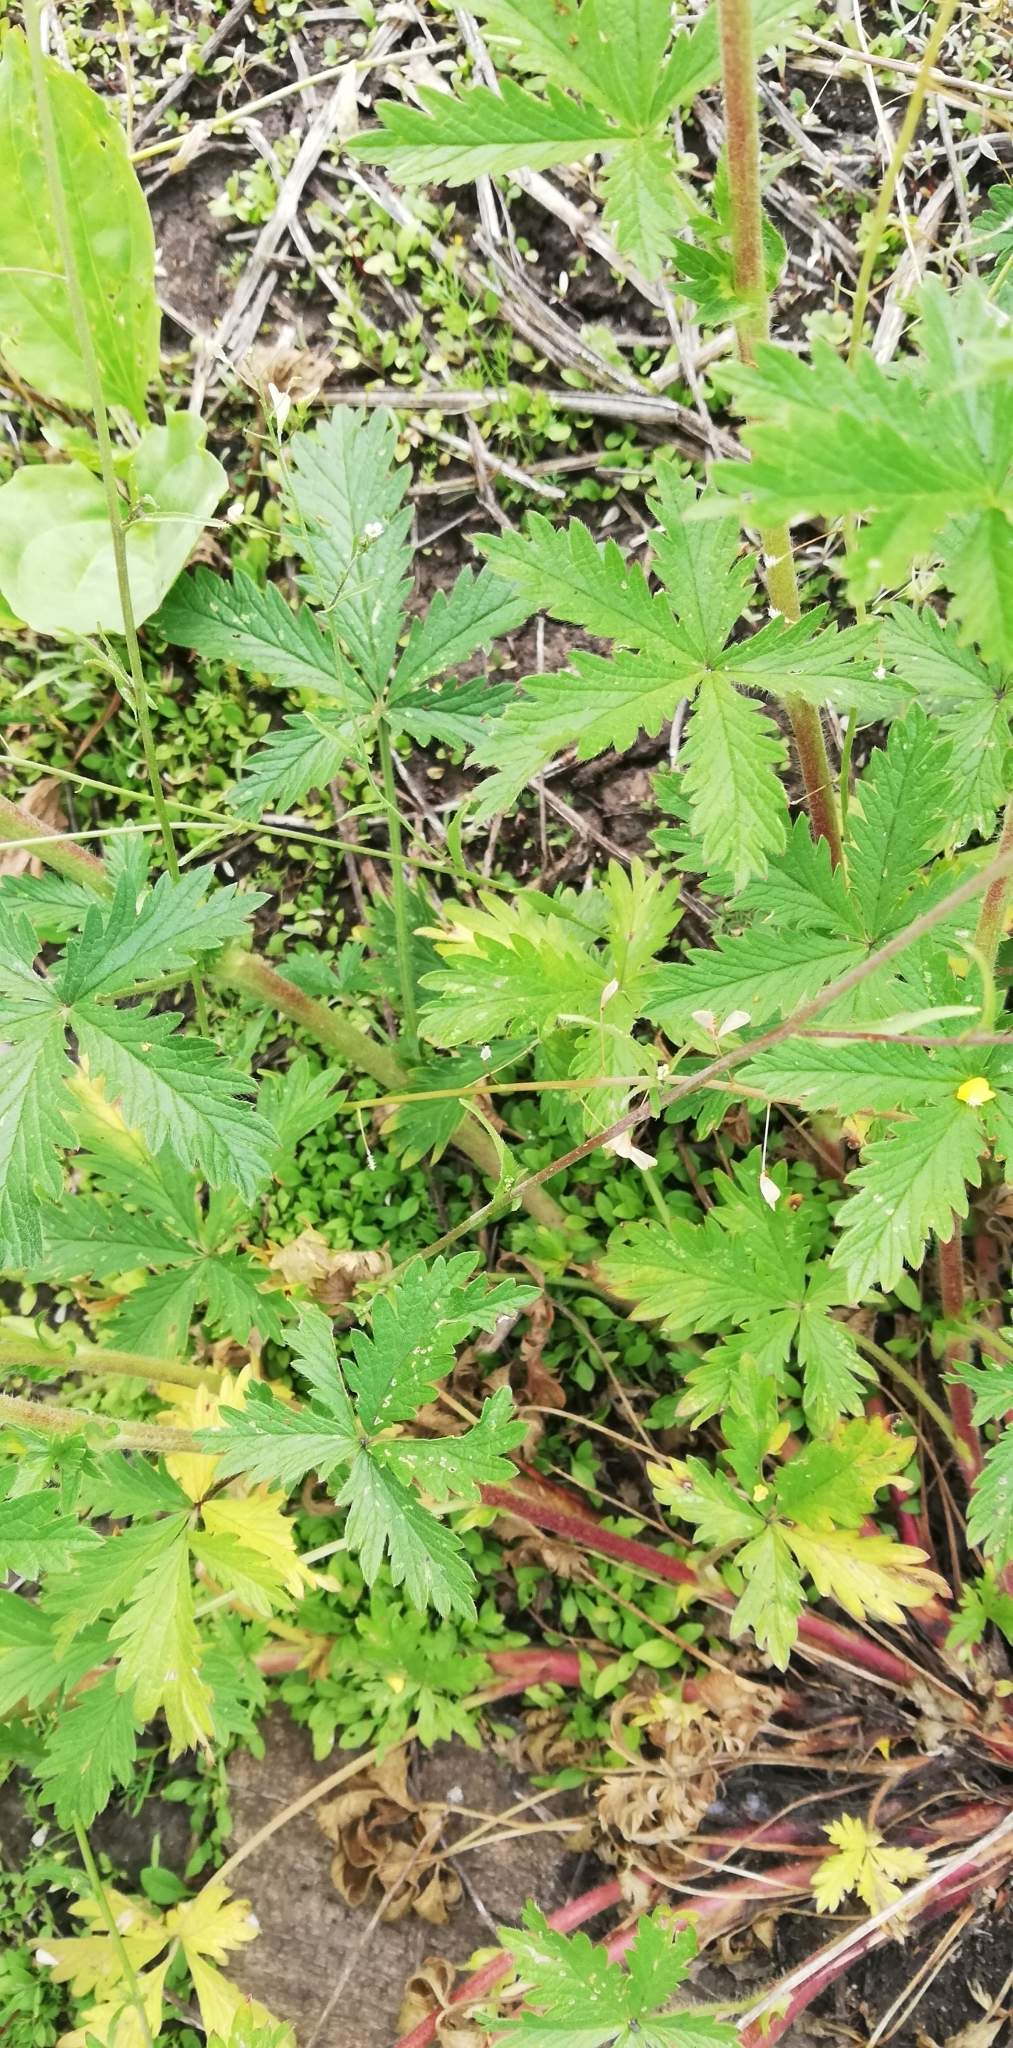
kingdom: Plantae
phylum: Tracheophyta
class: Magnoliopsida
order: Rosales
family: Rosaceae
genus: Potentilla
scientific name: Potentilla intermedia
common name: Downy cinquefoil
